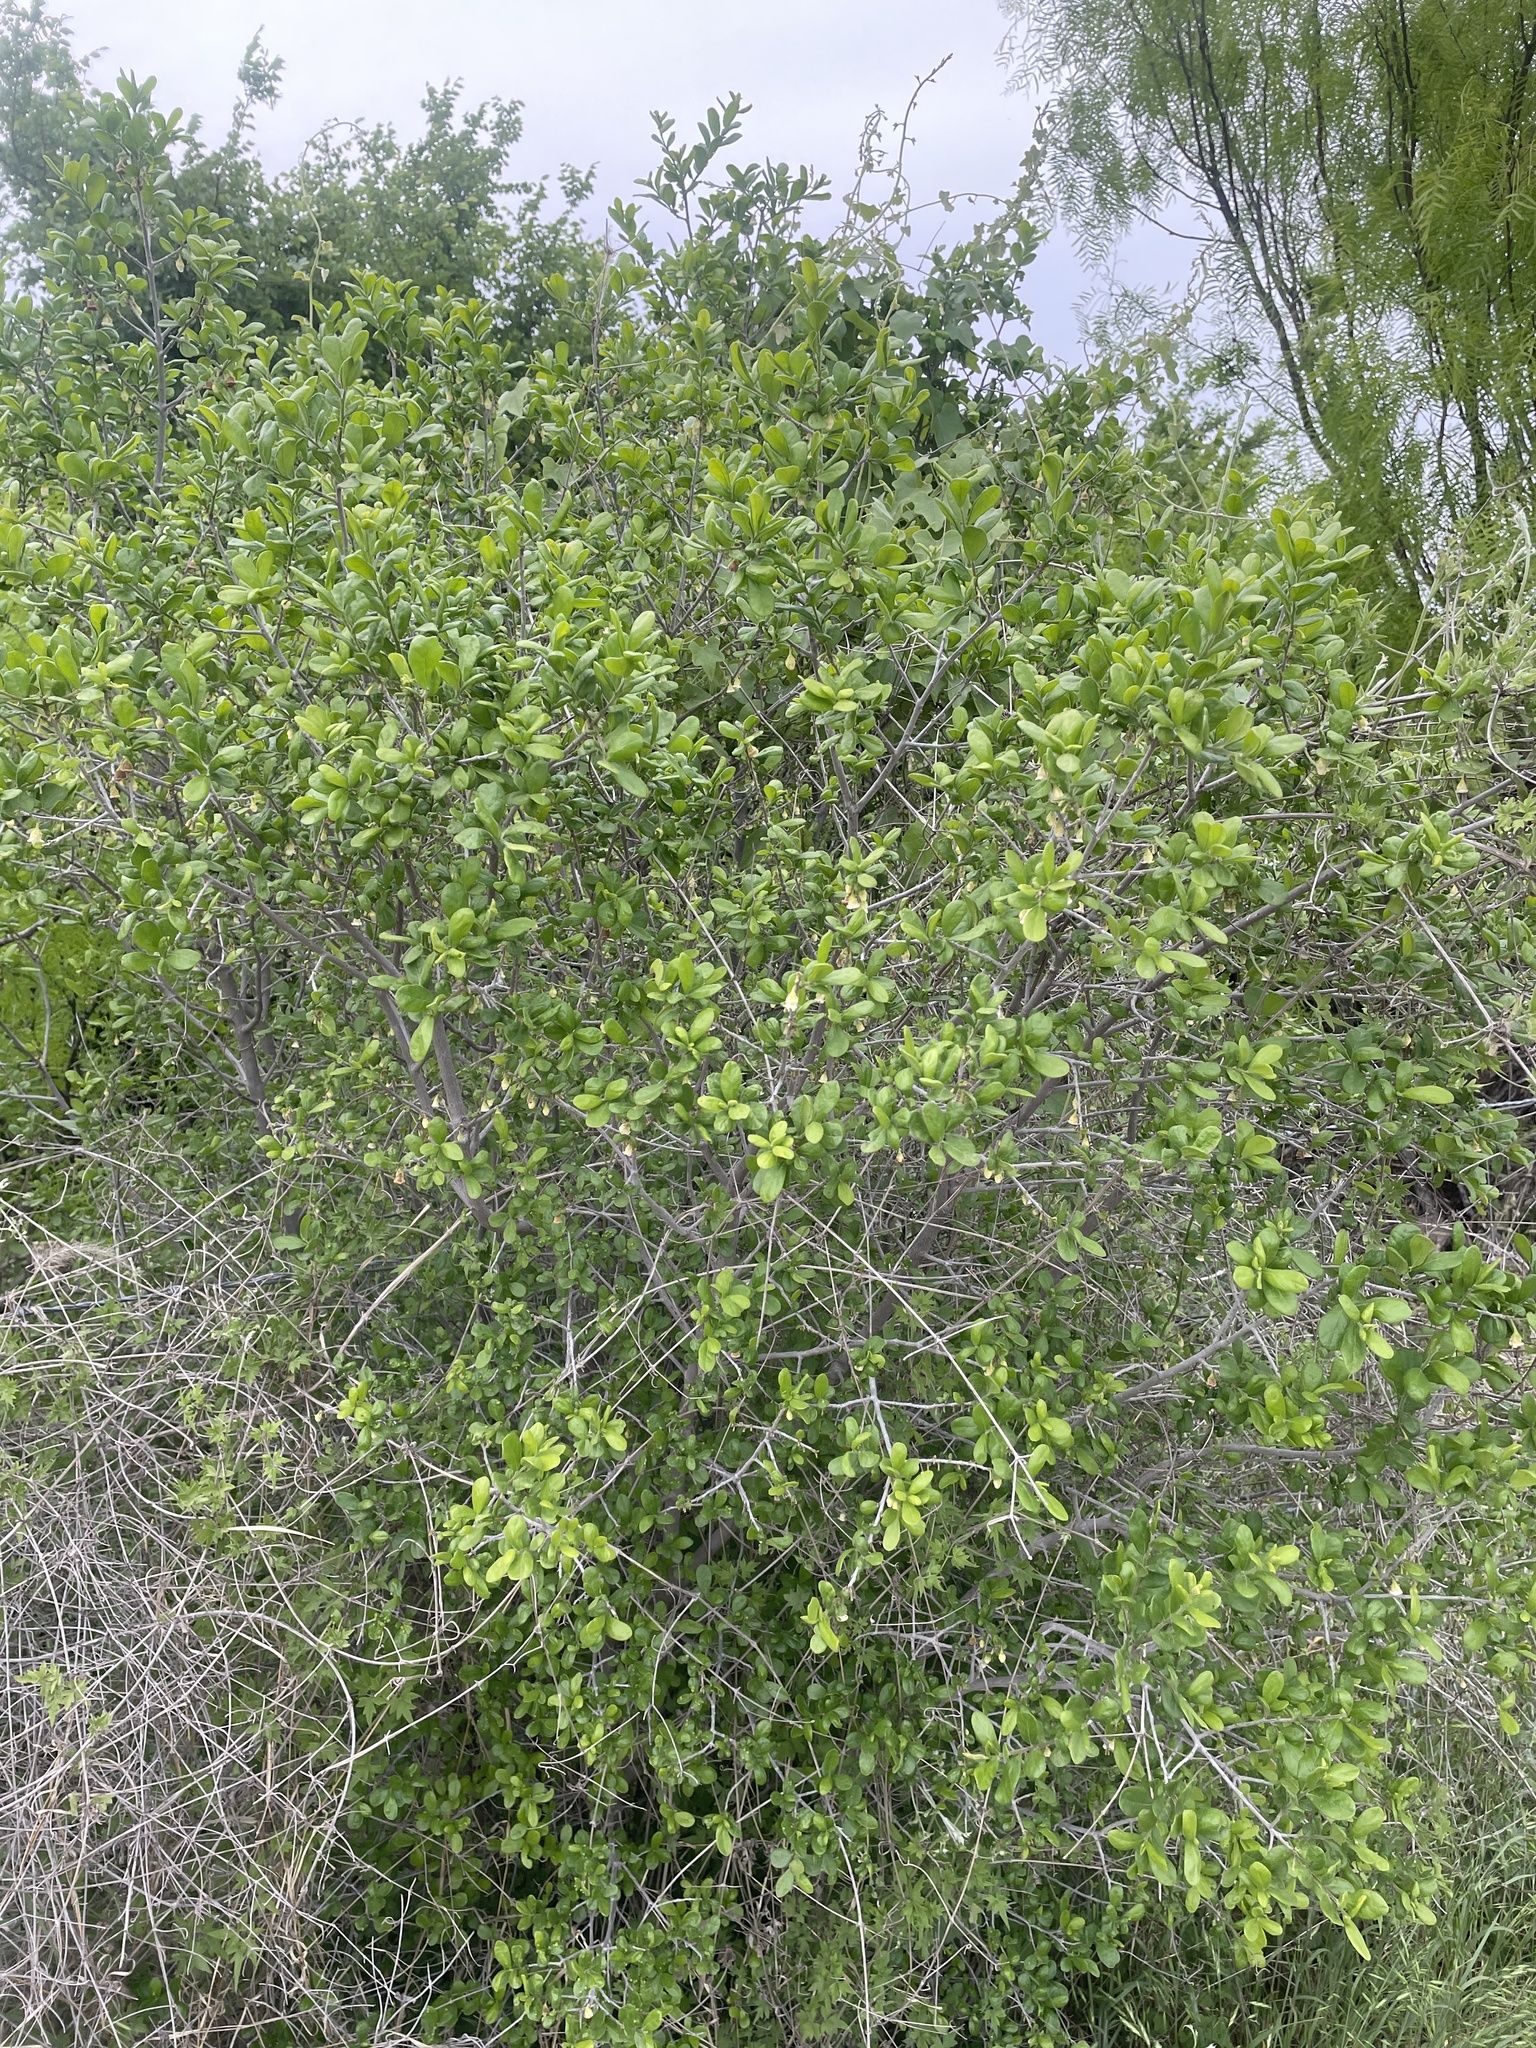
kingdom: Plantae
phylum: Tracheophyta
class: Magnoliopsida
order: Ericales
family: Ebenaceae
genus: Diospyros
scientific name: Diospyros texana
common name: Texas persimmon
